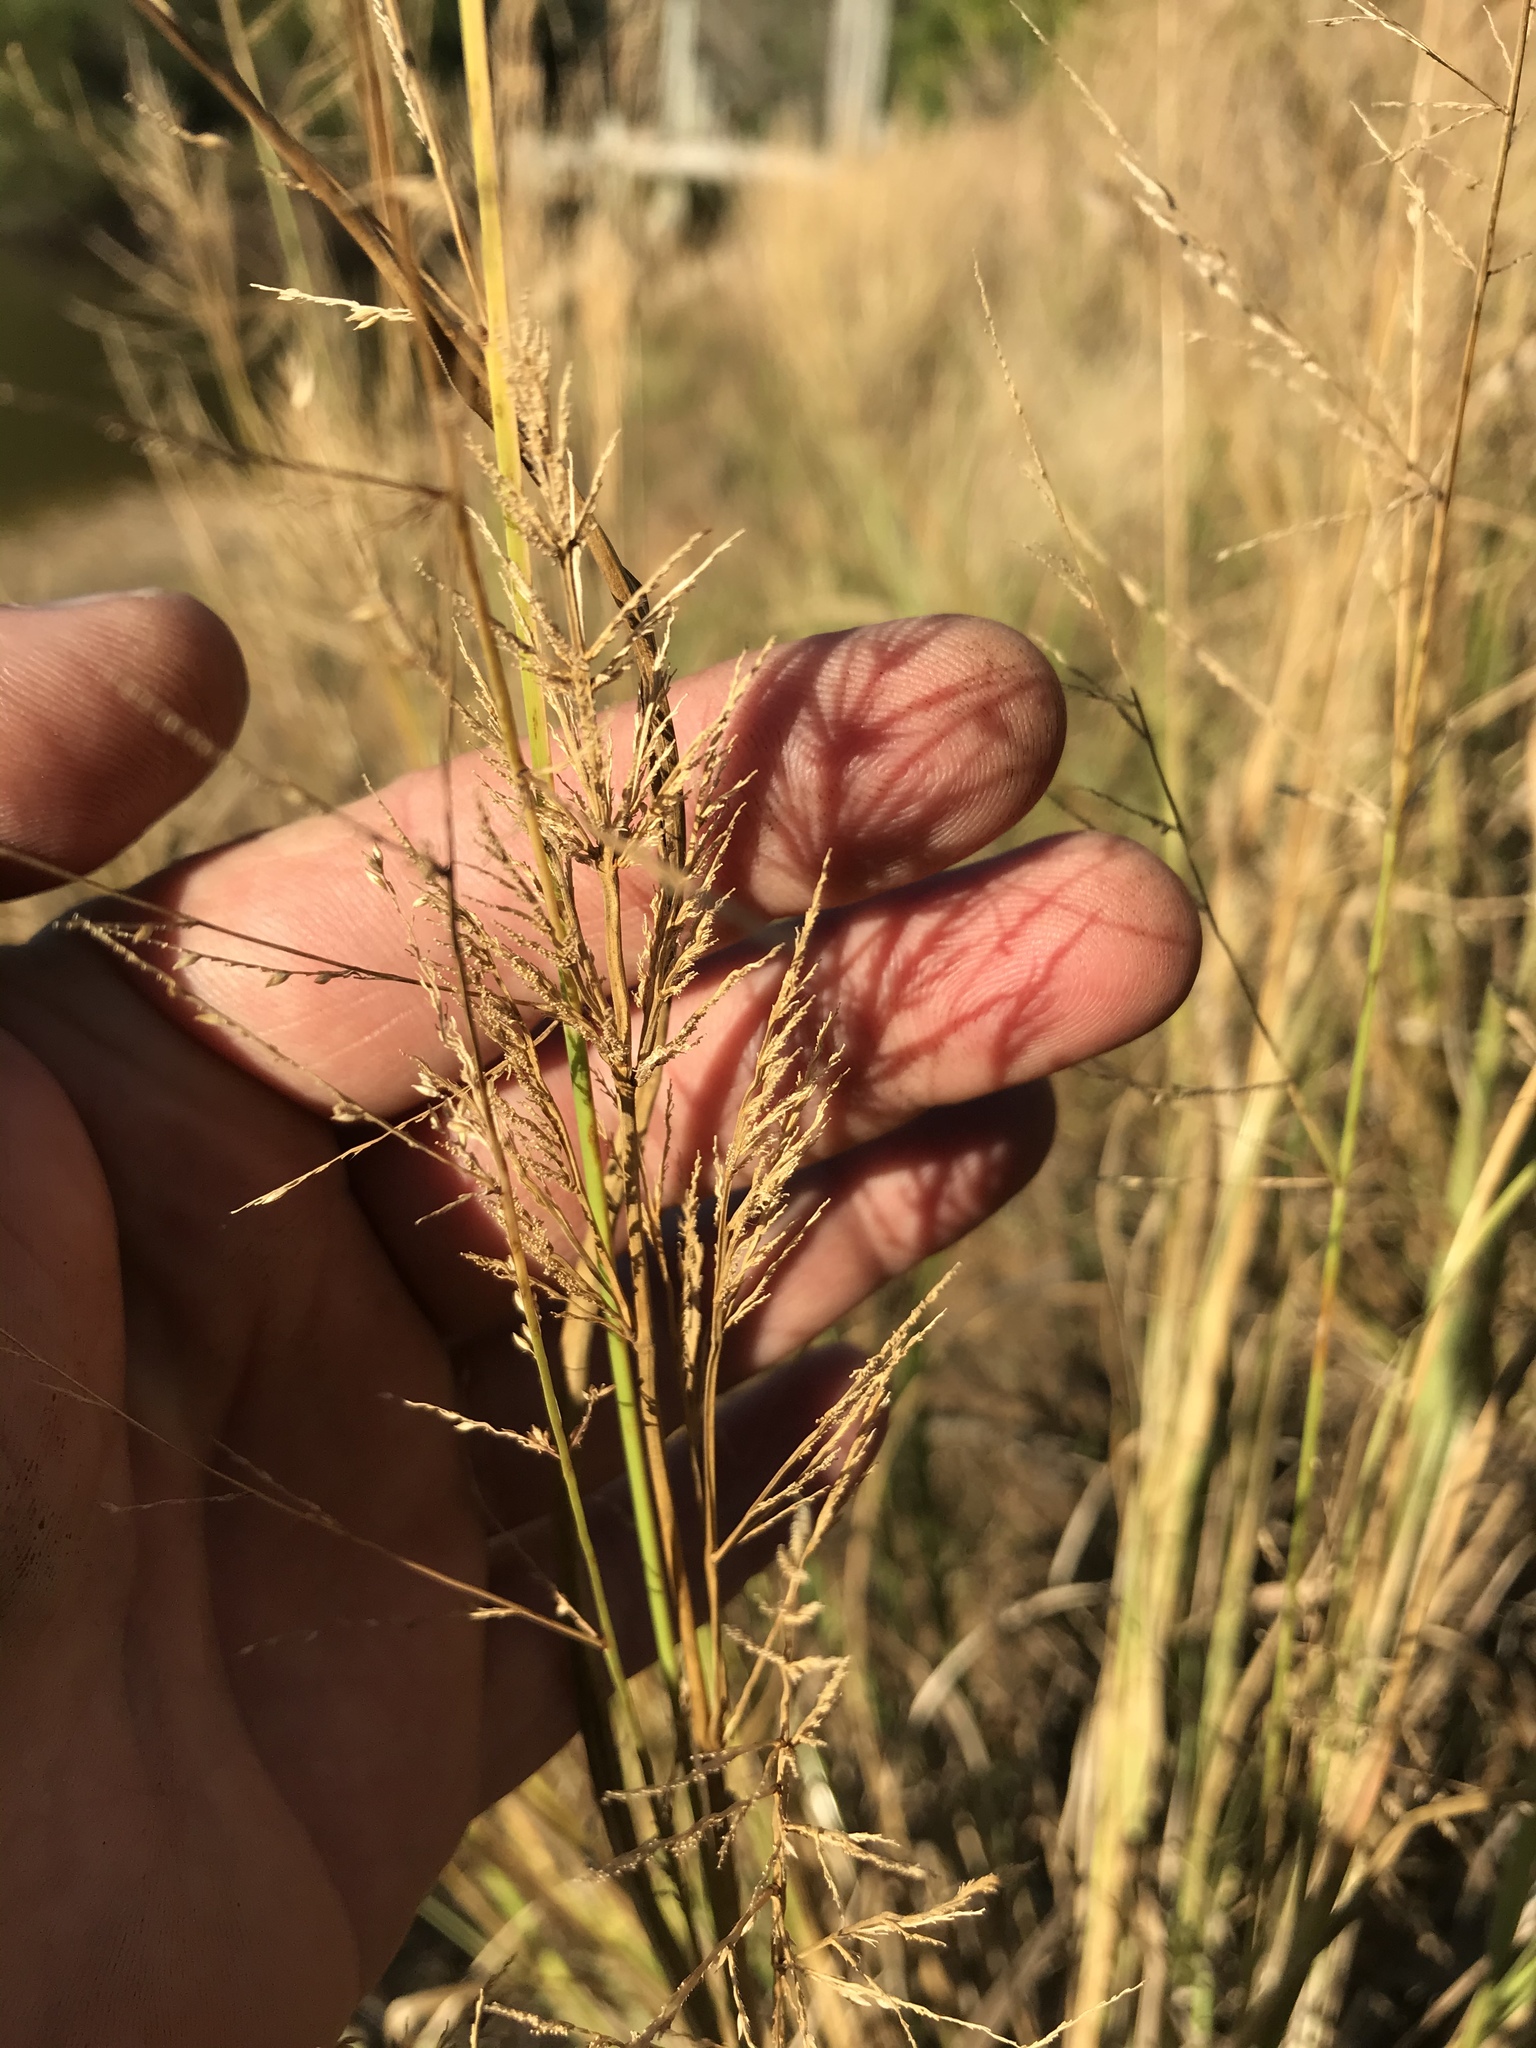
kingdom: Plantae
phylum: Tracheophyta
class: Liliopsida
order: Poales
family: Poaceae
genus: Panicum
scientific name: Panicum virgatum
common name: Switchgrass
